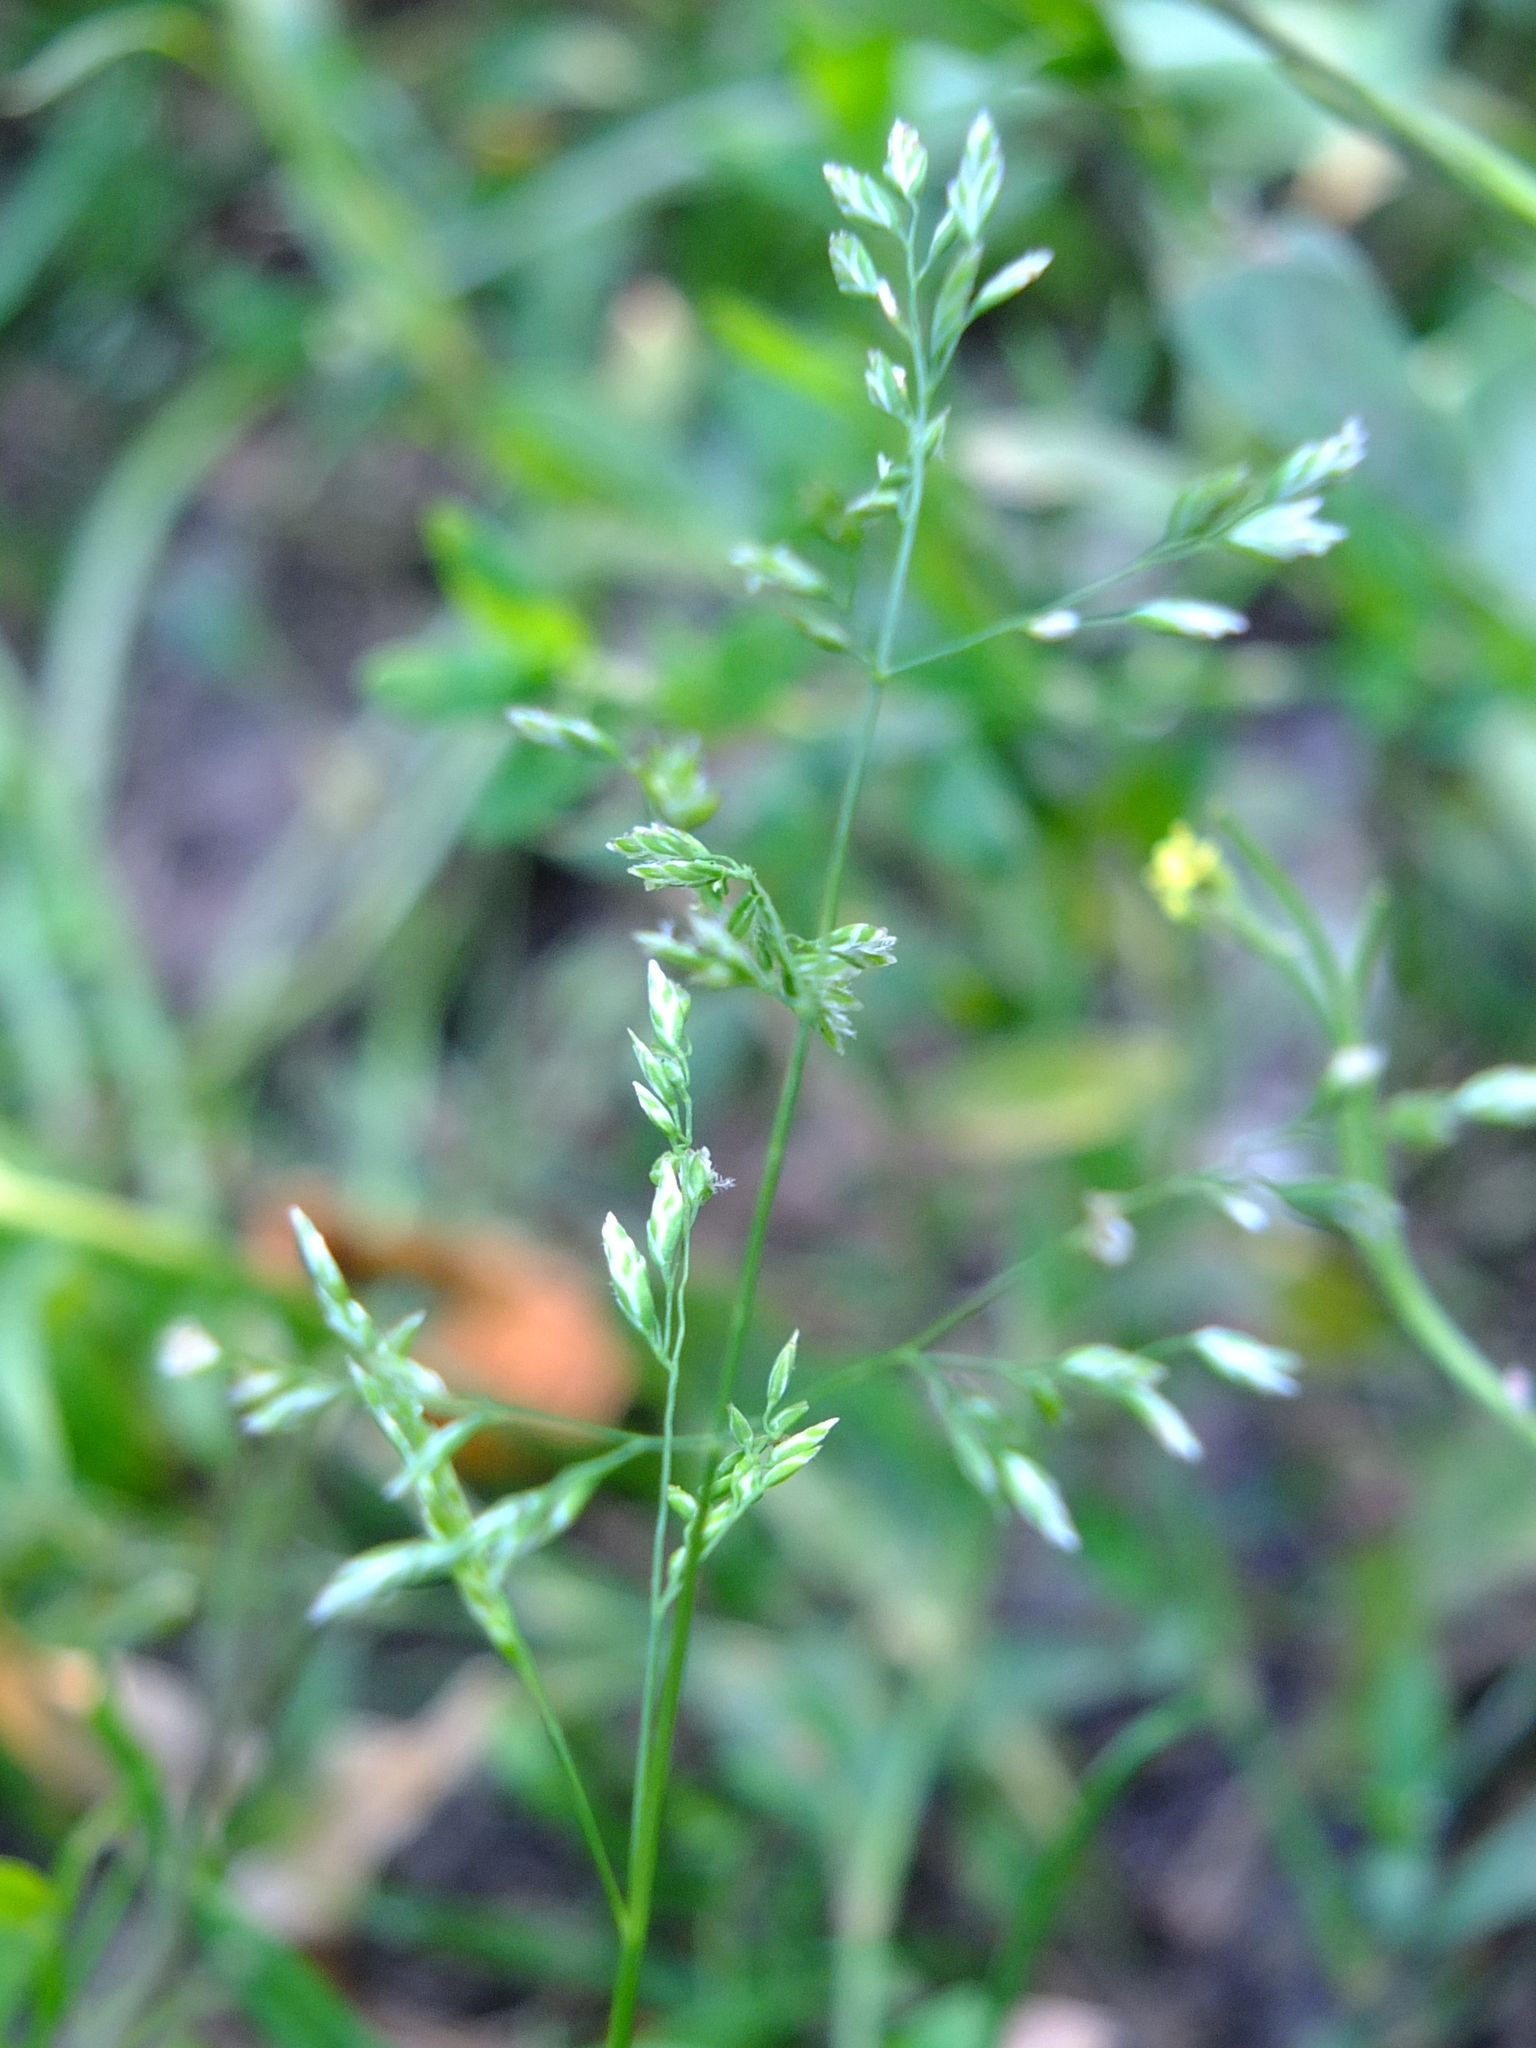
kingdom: Plantae
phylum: Tracheophyta
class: Liliopsida
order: Poales
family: Poaceae
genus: Poa
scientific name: Poa annua
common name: Annual bluegrass
